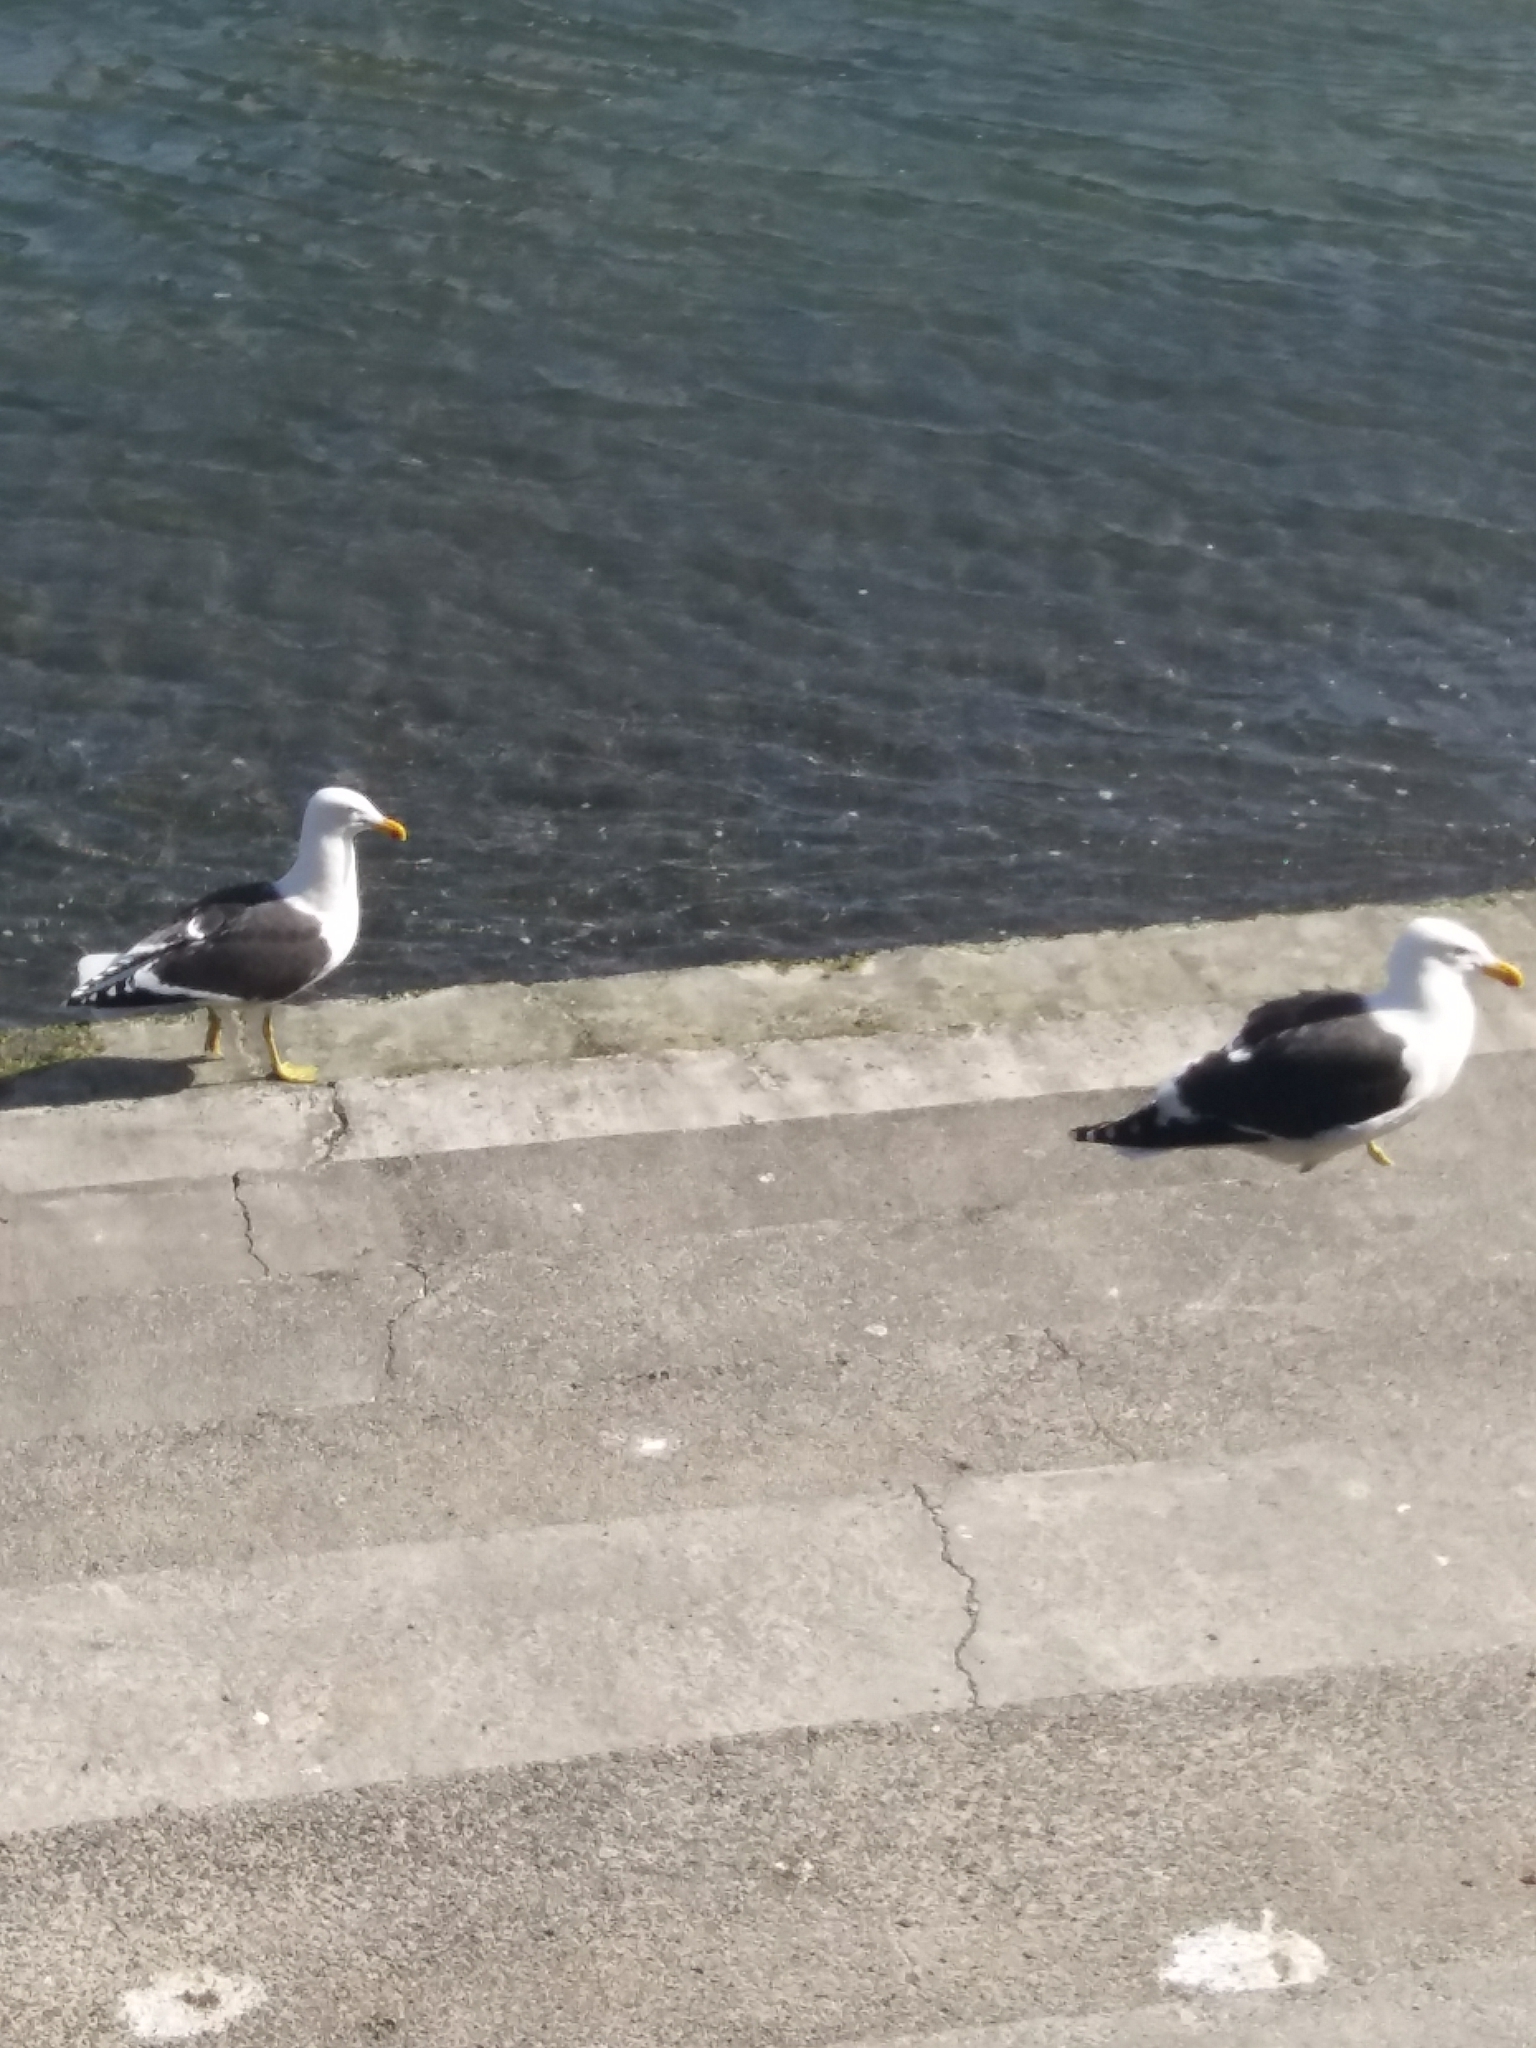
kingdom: Animalia
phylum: Chordata
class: Aves
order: Charadriiformes
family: Laridae
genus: Larus
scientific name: Larus dominicanus
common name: Kelp gull
